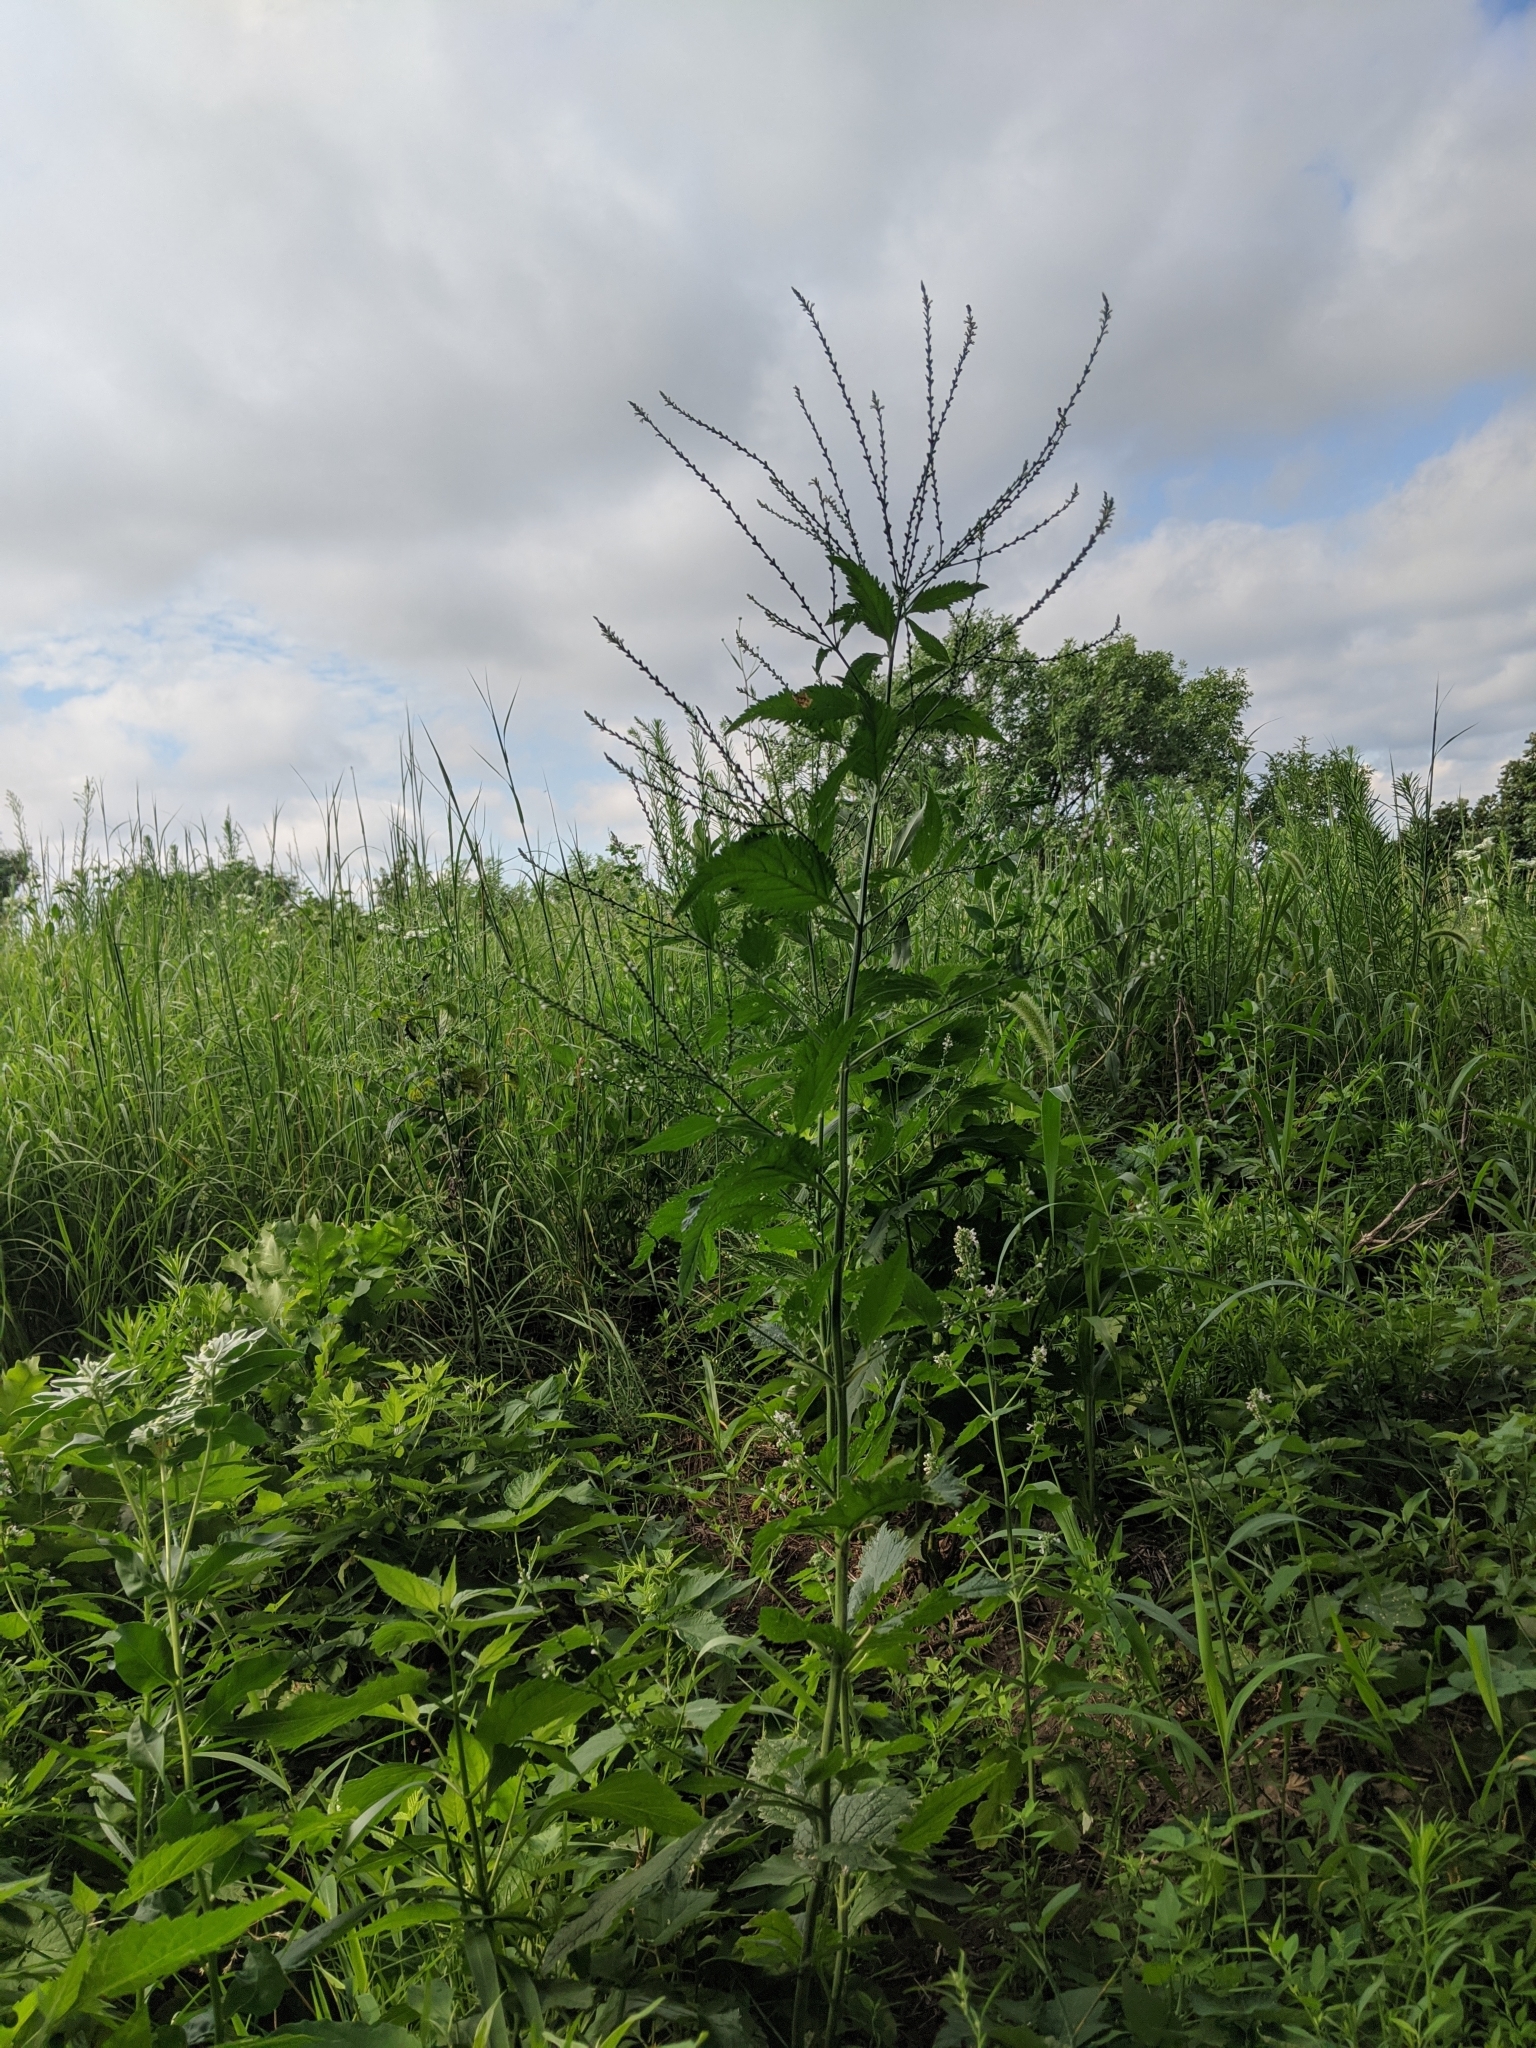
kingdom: Plantae
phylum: Tracheophyta
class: Magnoliopsida
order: Lamiales
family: Verbenaceae
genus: Verbena
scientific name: Verbena urticifolia
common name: Nettle-leaved vervain
